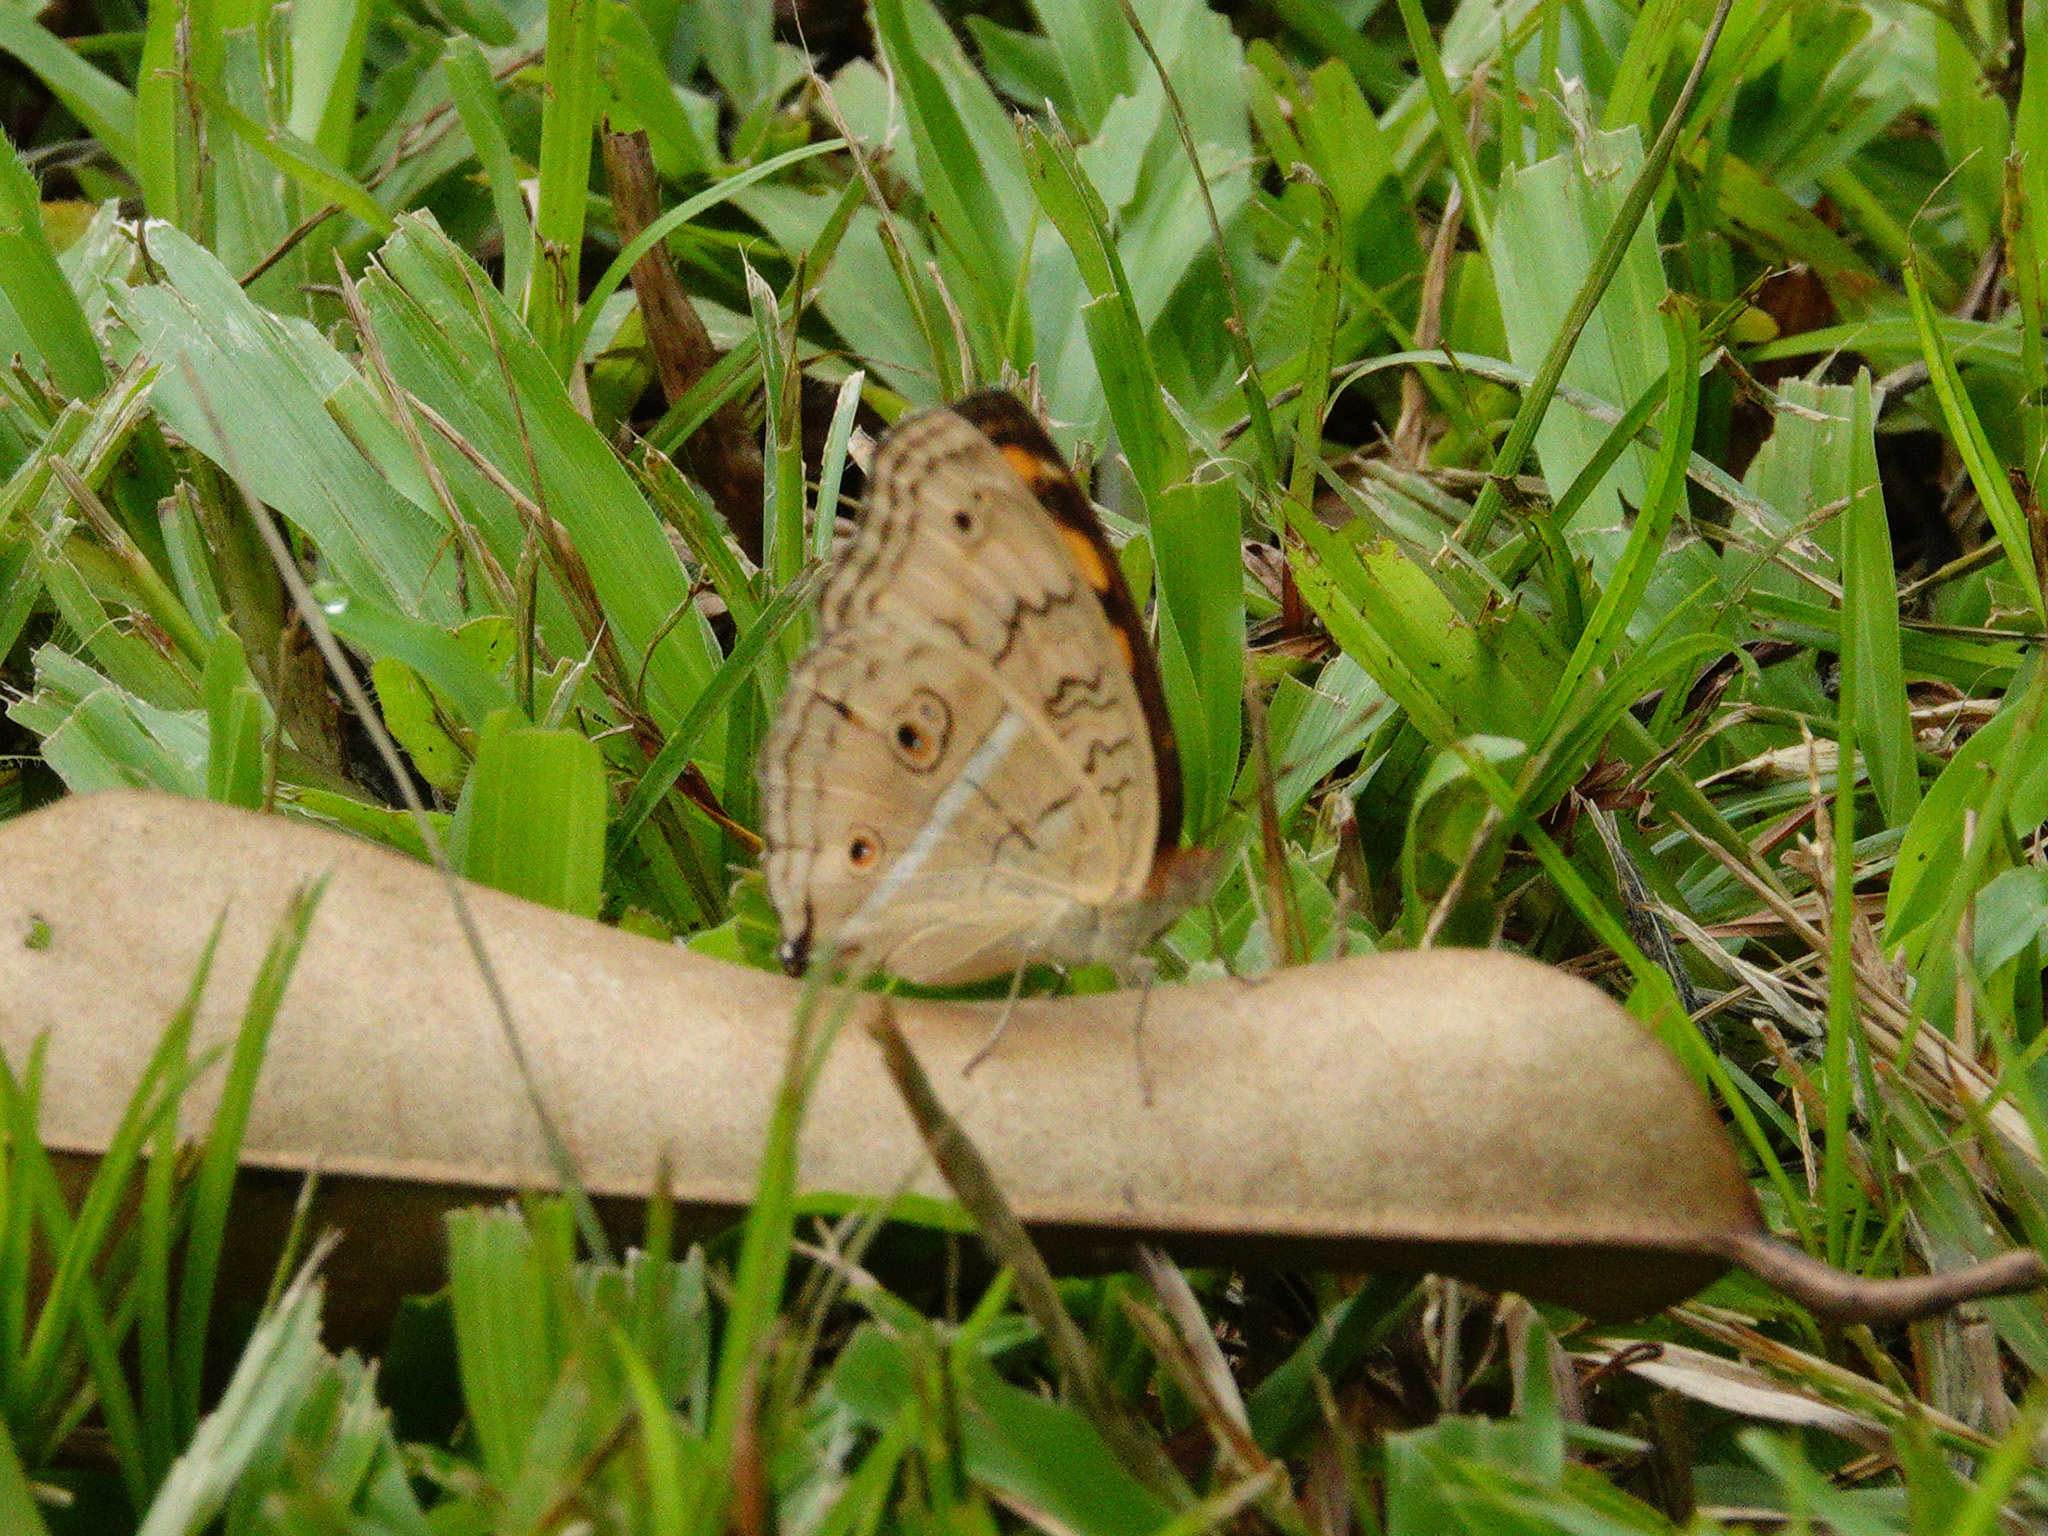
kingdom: Animalia
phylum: Arthropoda
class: Insecta
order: Lepidoptera
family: Nymphalidae
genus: Junonia
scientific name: Junonia almana
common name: Peacock pansy
